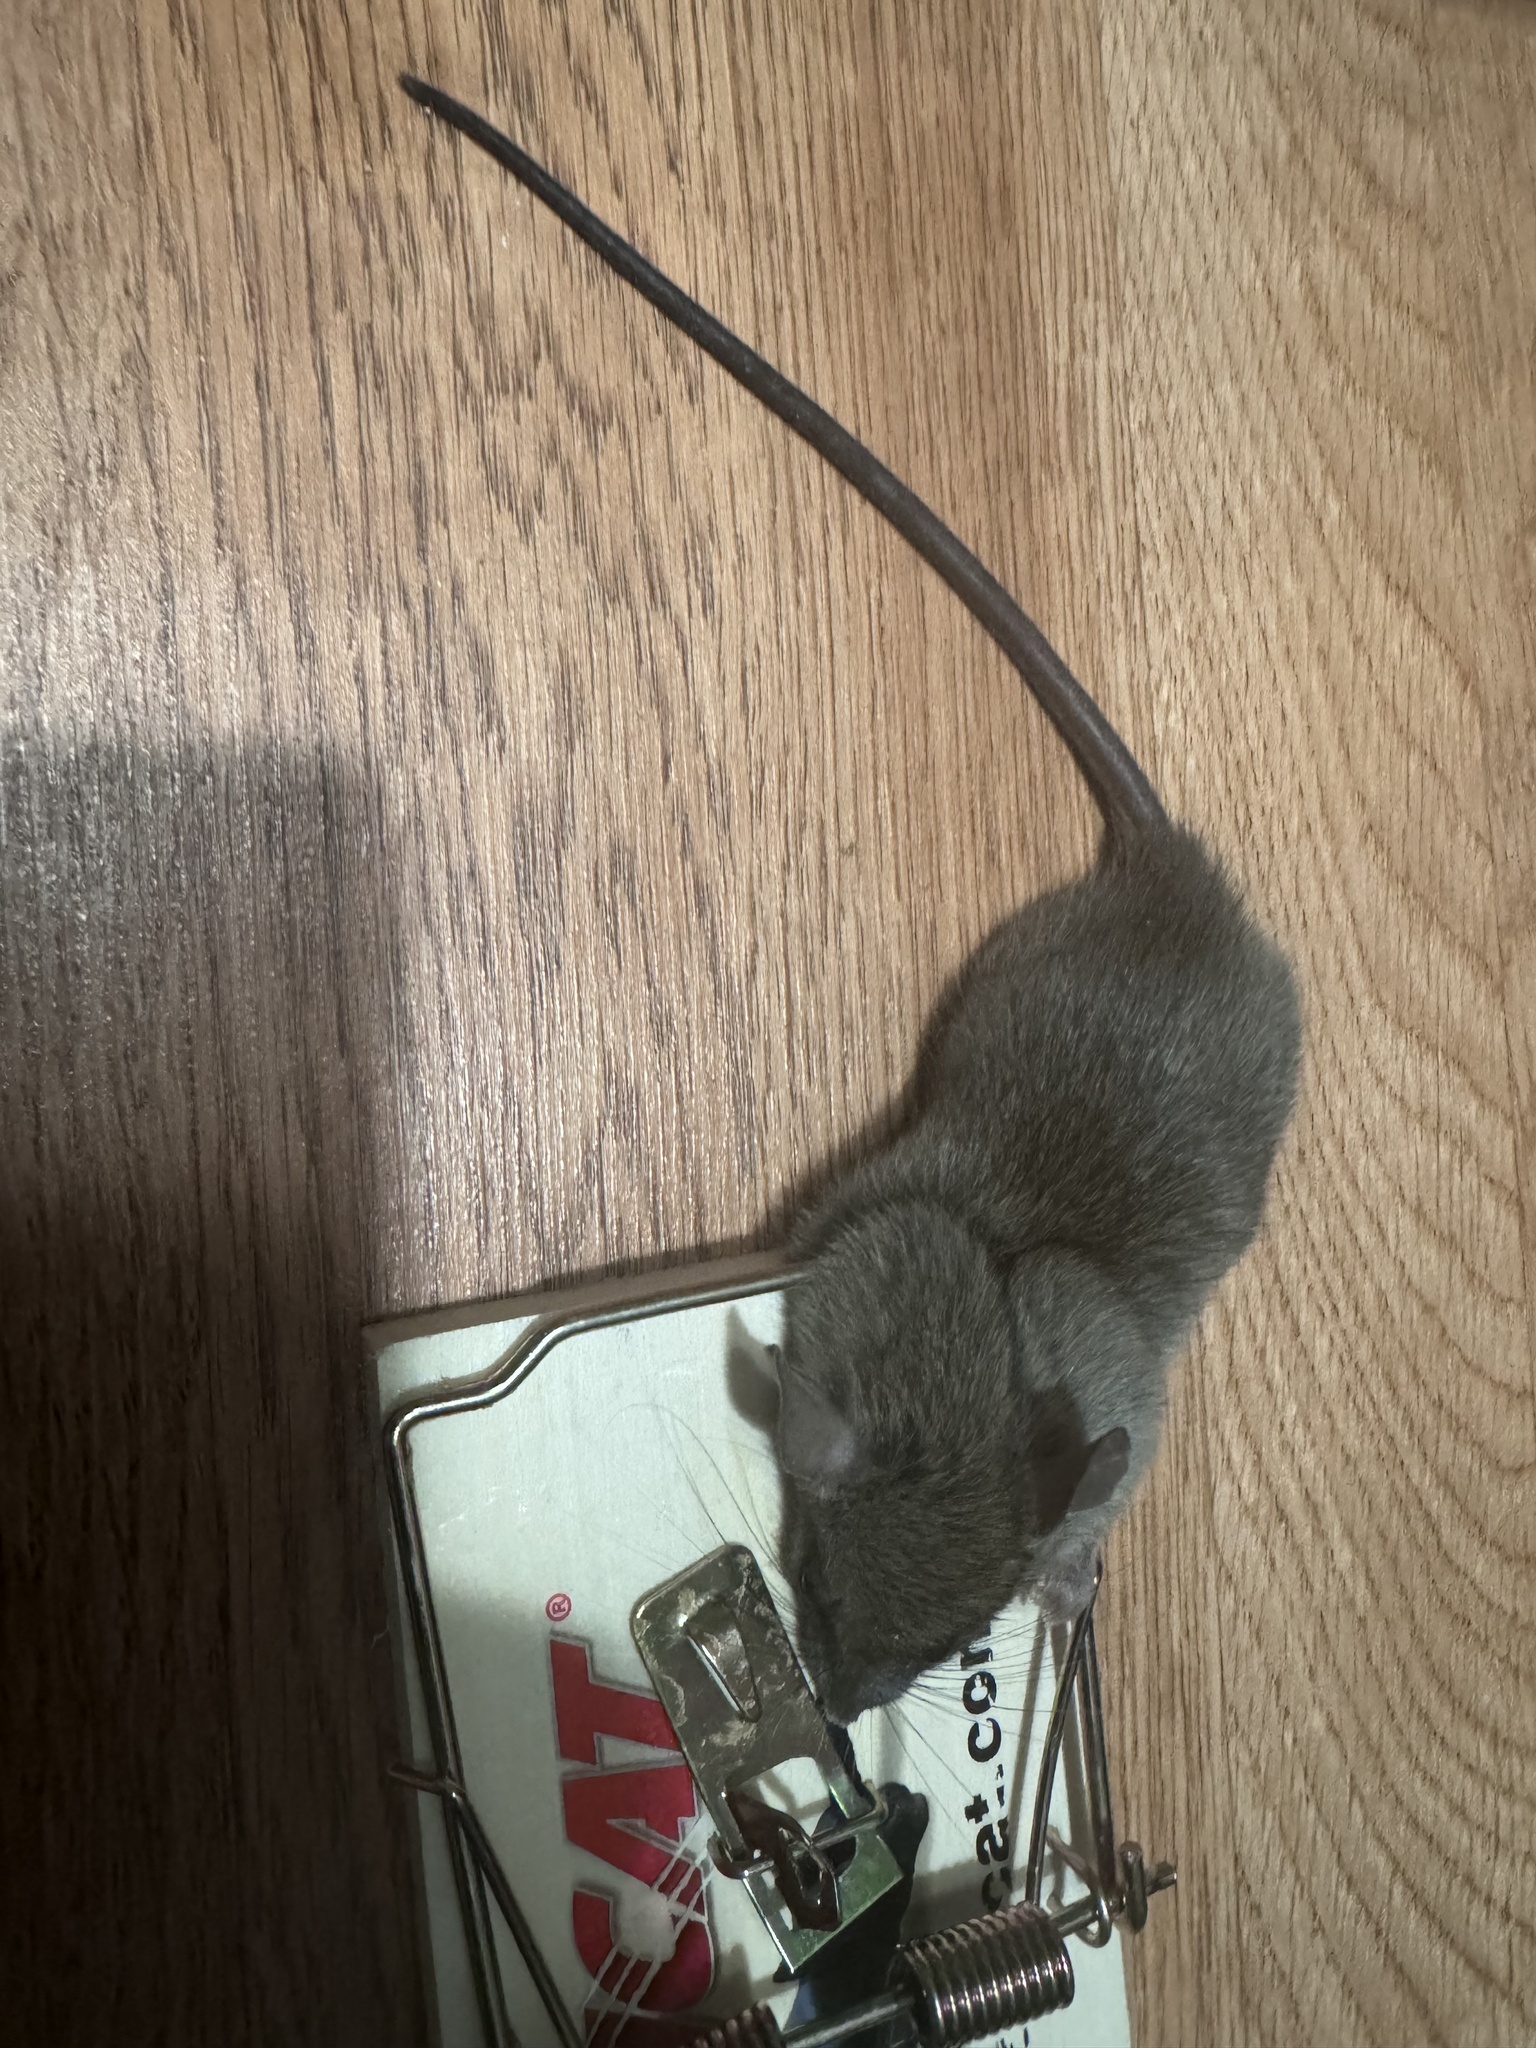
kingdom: Animalia
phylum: Chordata
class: Mammalia
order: Rodentia
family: Muridae
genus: Mus
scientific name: Mus musculus
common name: House mouse
